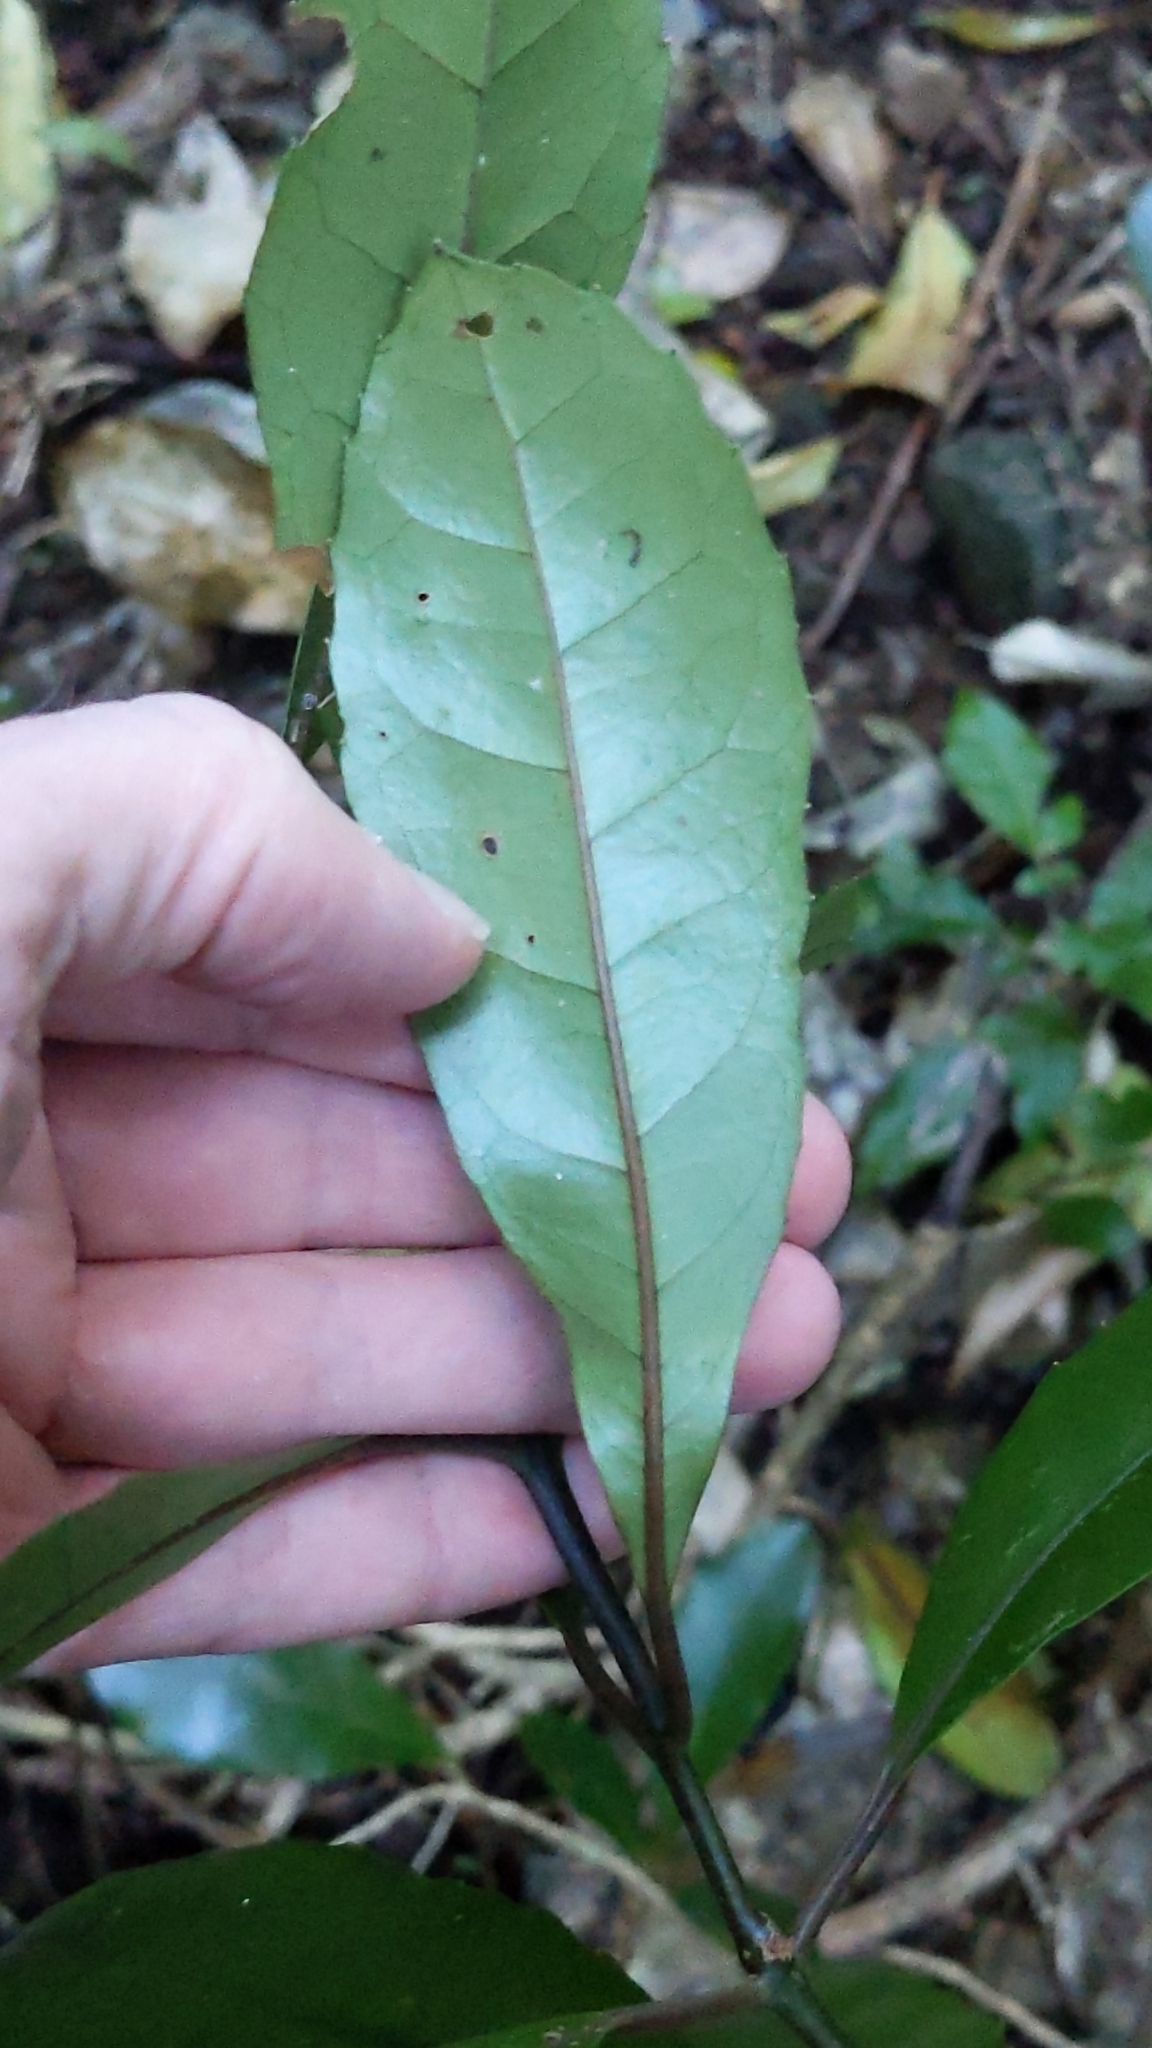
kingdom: Plantae
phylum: Tracheophyta
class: Magnoliopsida
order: Laurales
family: Monimiaceae
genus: Hedycarya
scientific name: Hedycarya arborea
